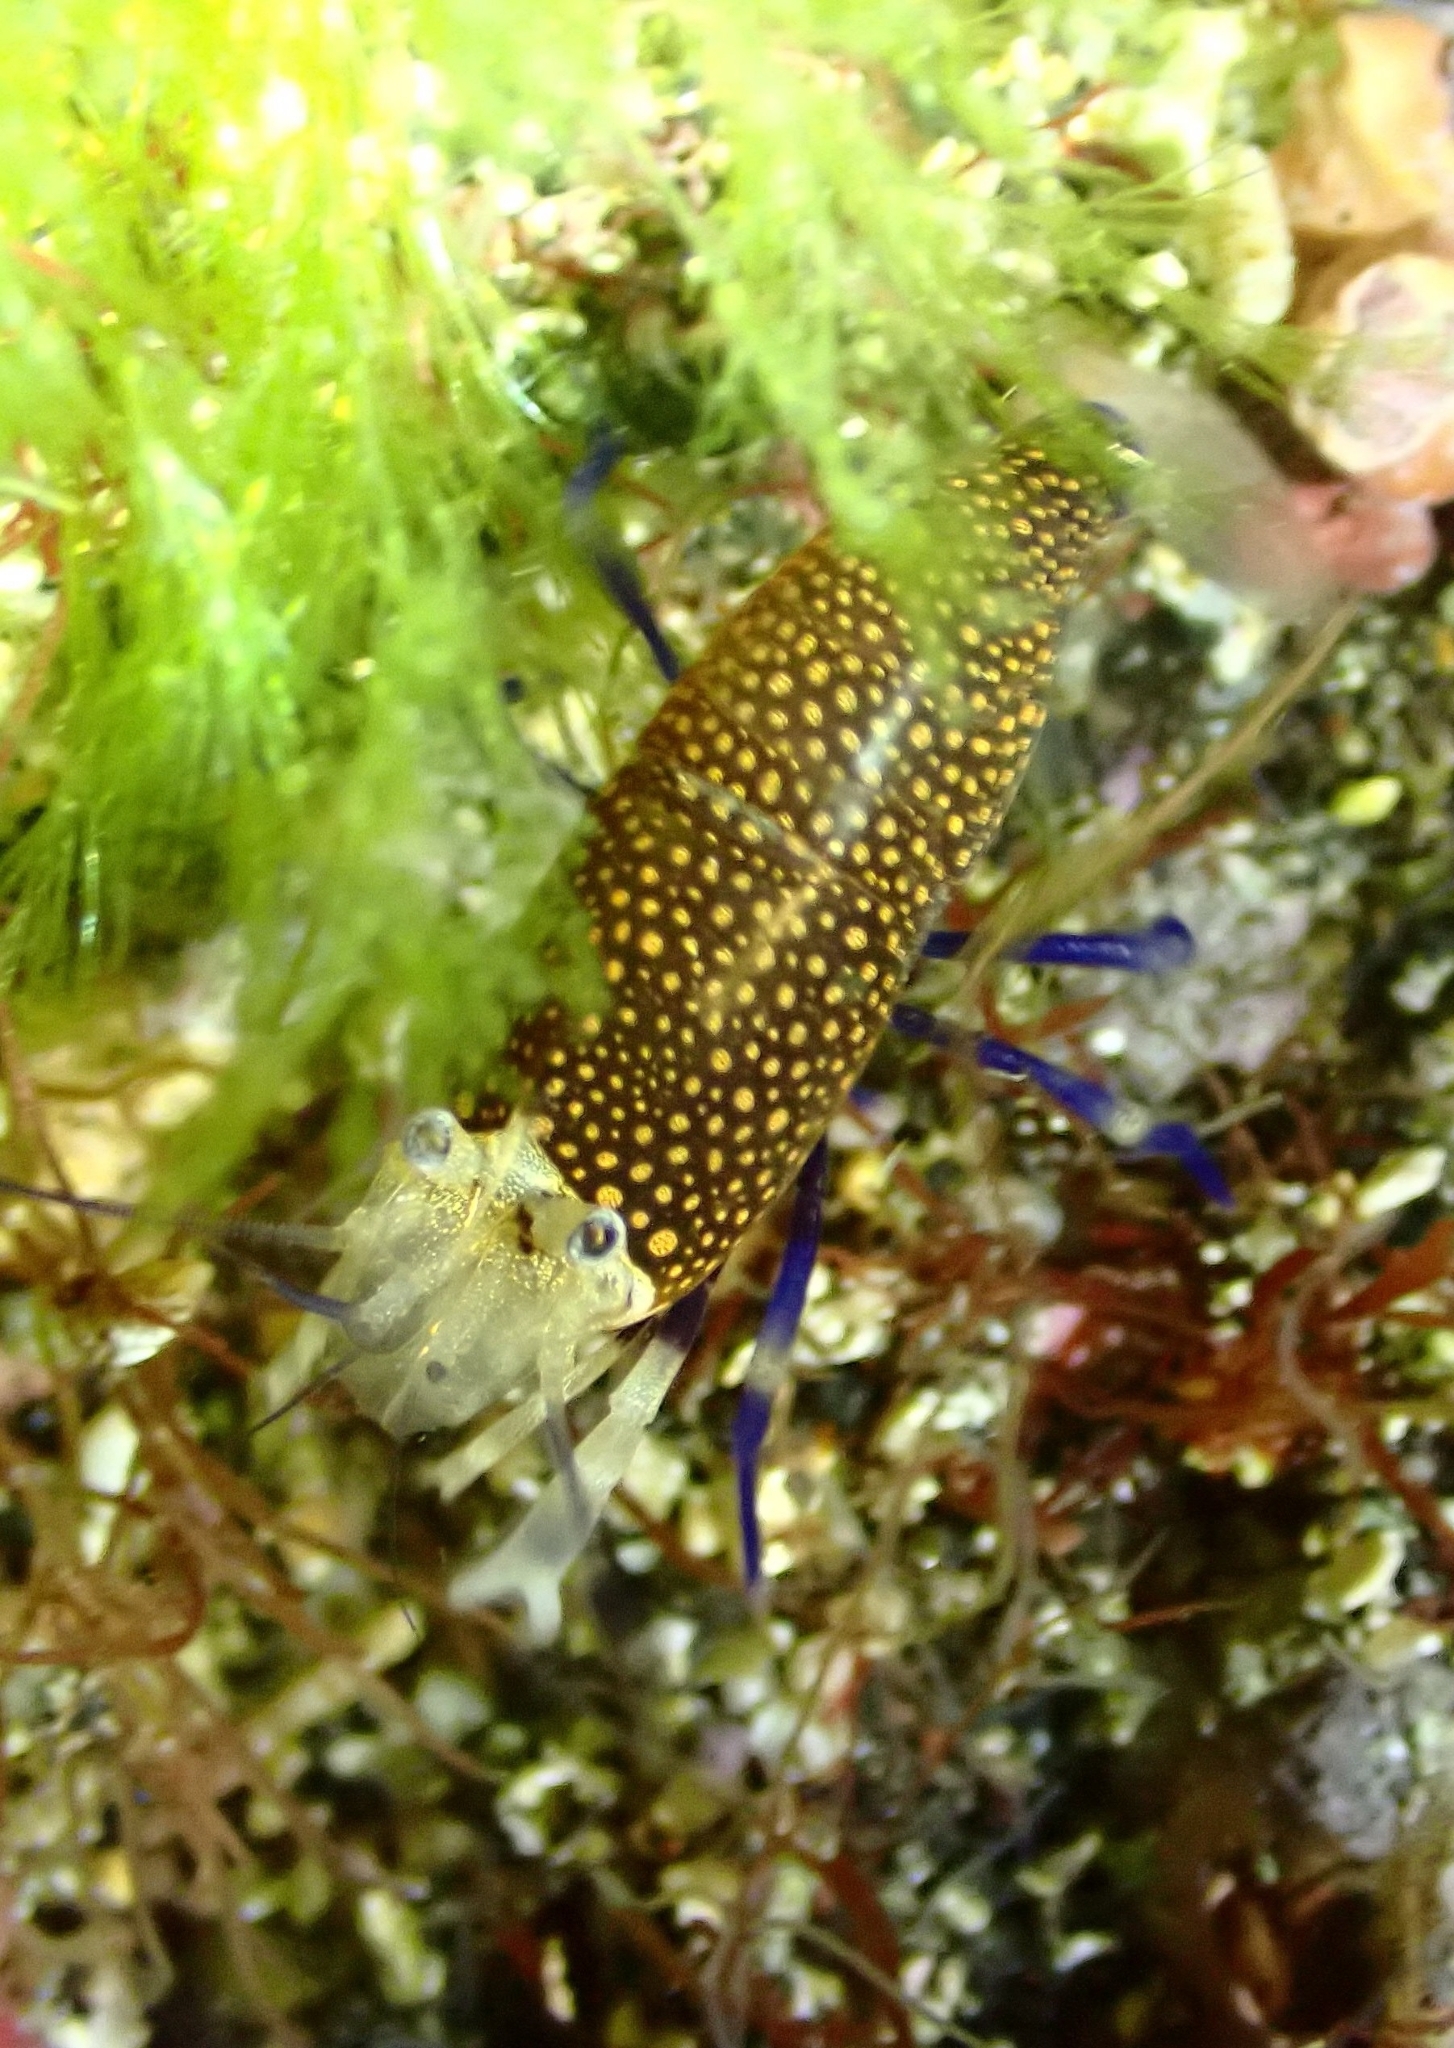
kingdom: Animalia
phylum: Arthropoda
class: Malacostraca
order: Decapoda
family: Palaemonidae
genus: Gnathophyllum
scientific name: Gnathophyllum elegans
